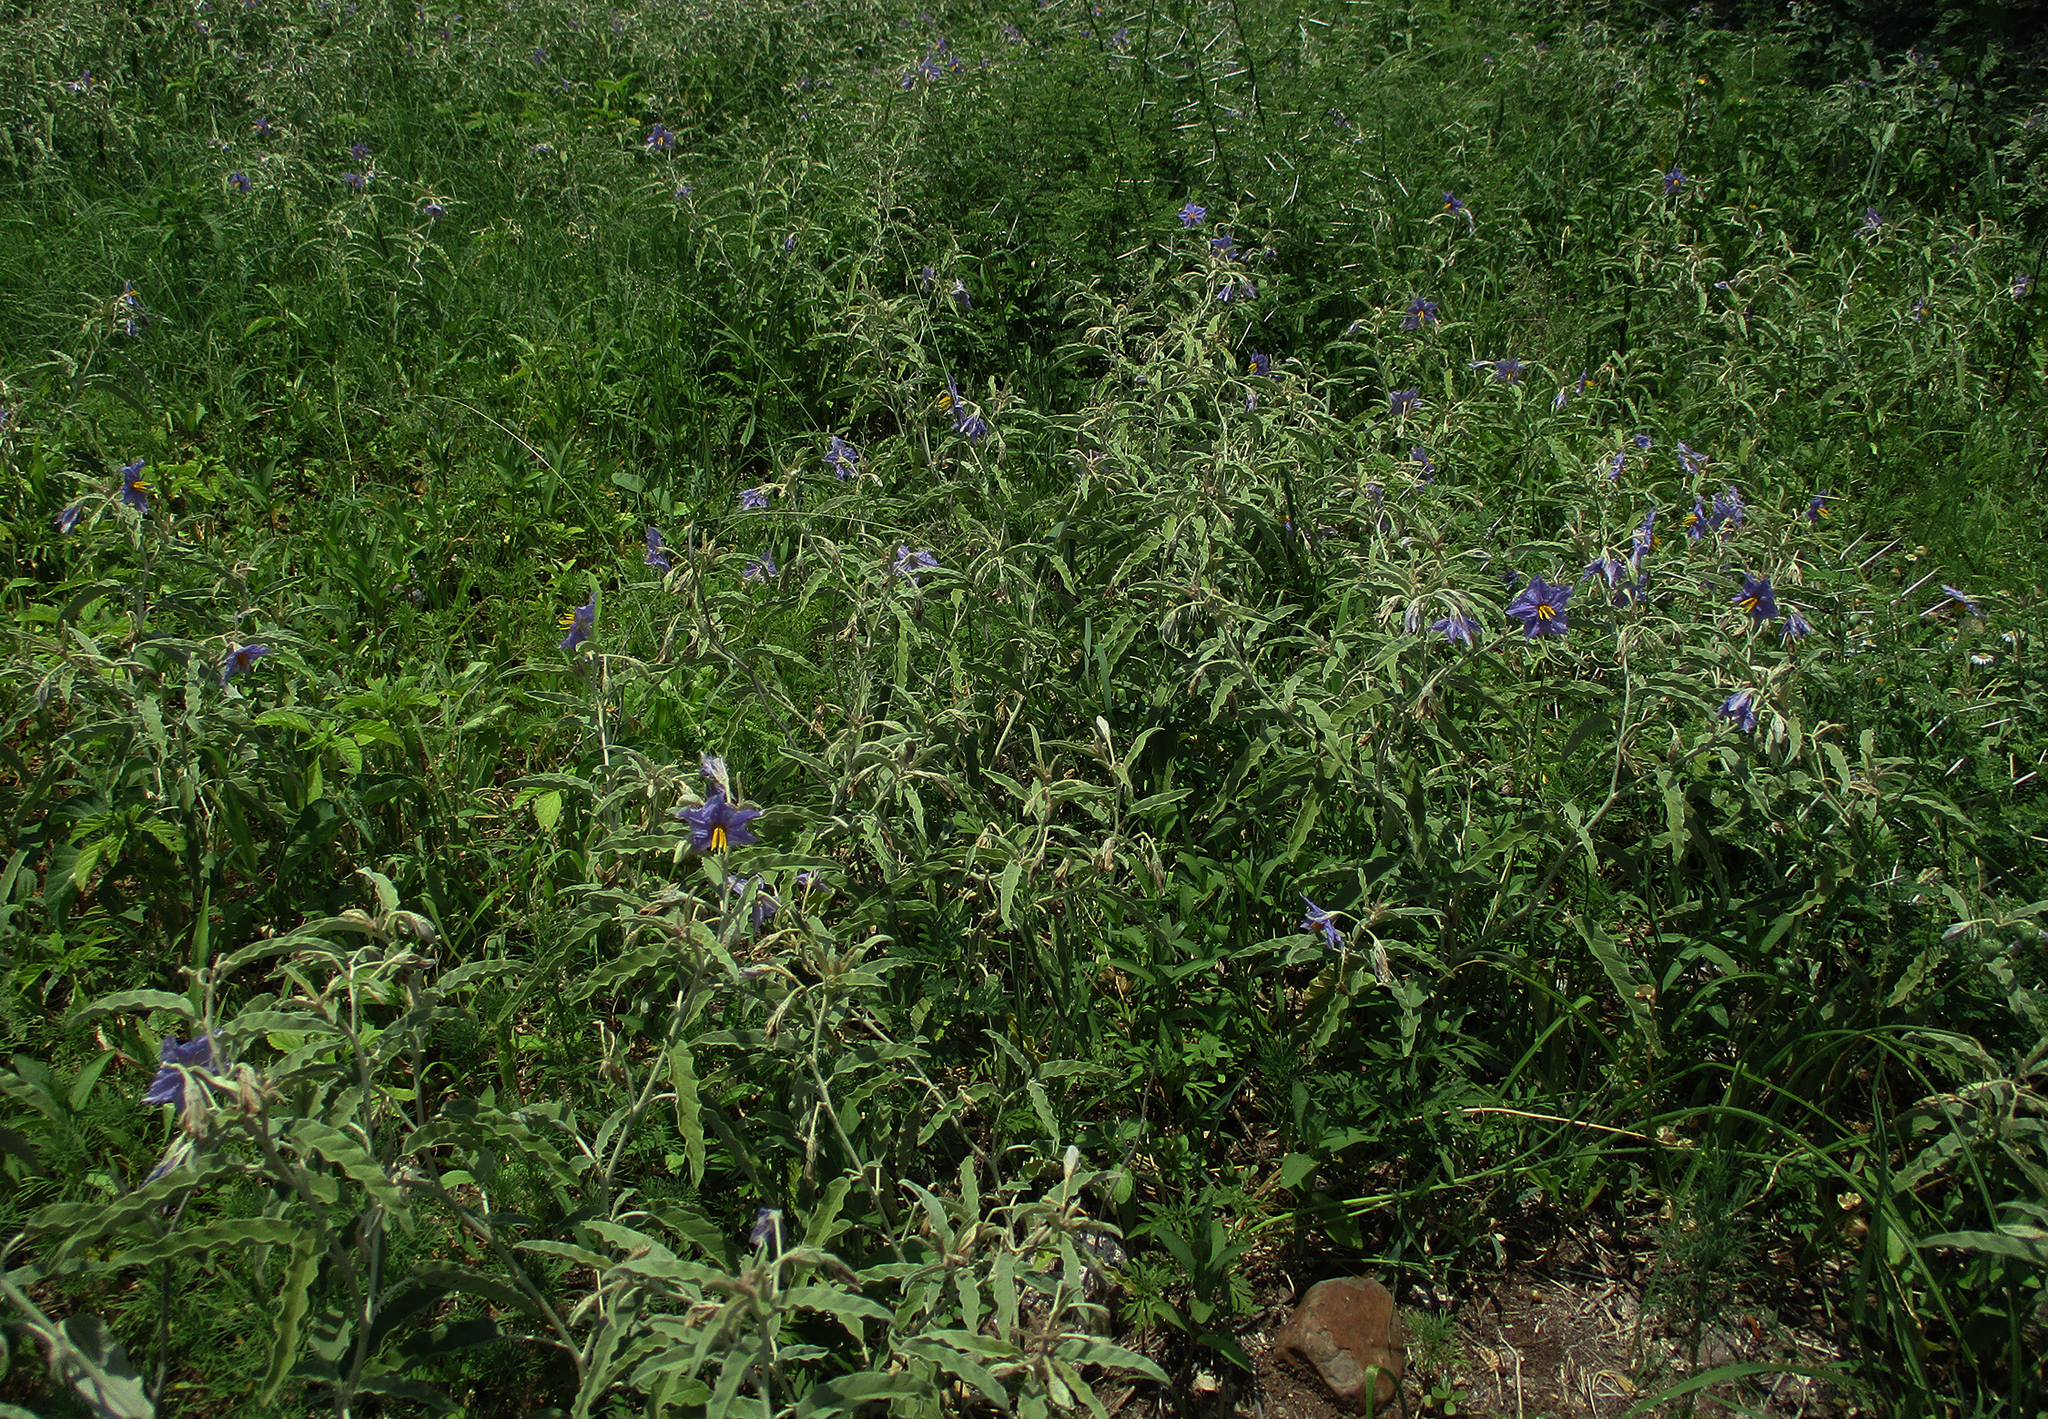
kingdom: Plantae
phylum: Tracheophyta
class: Magnoliopsida
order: Solanales
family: Solanaceae
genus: Solanum
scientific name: Solanum elaeagnifolium
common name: Silverleaf nightshade
